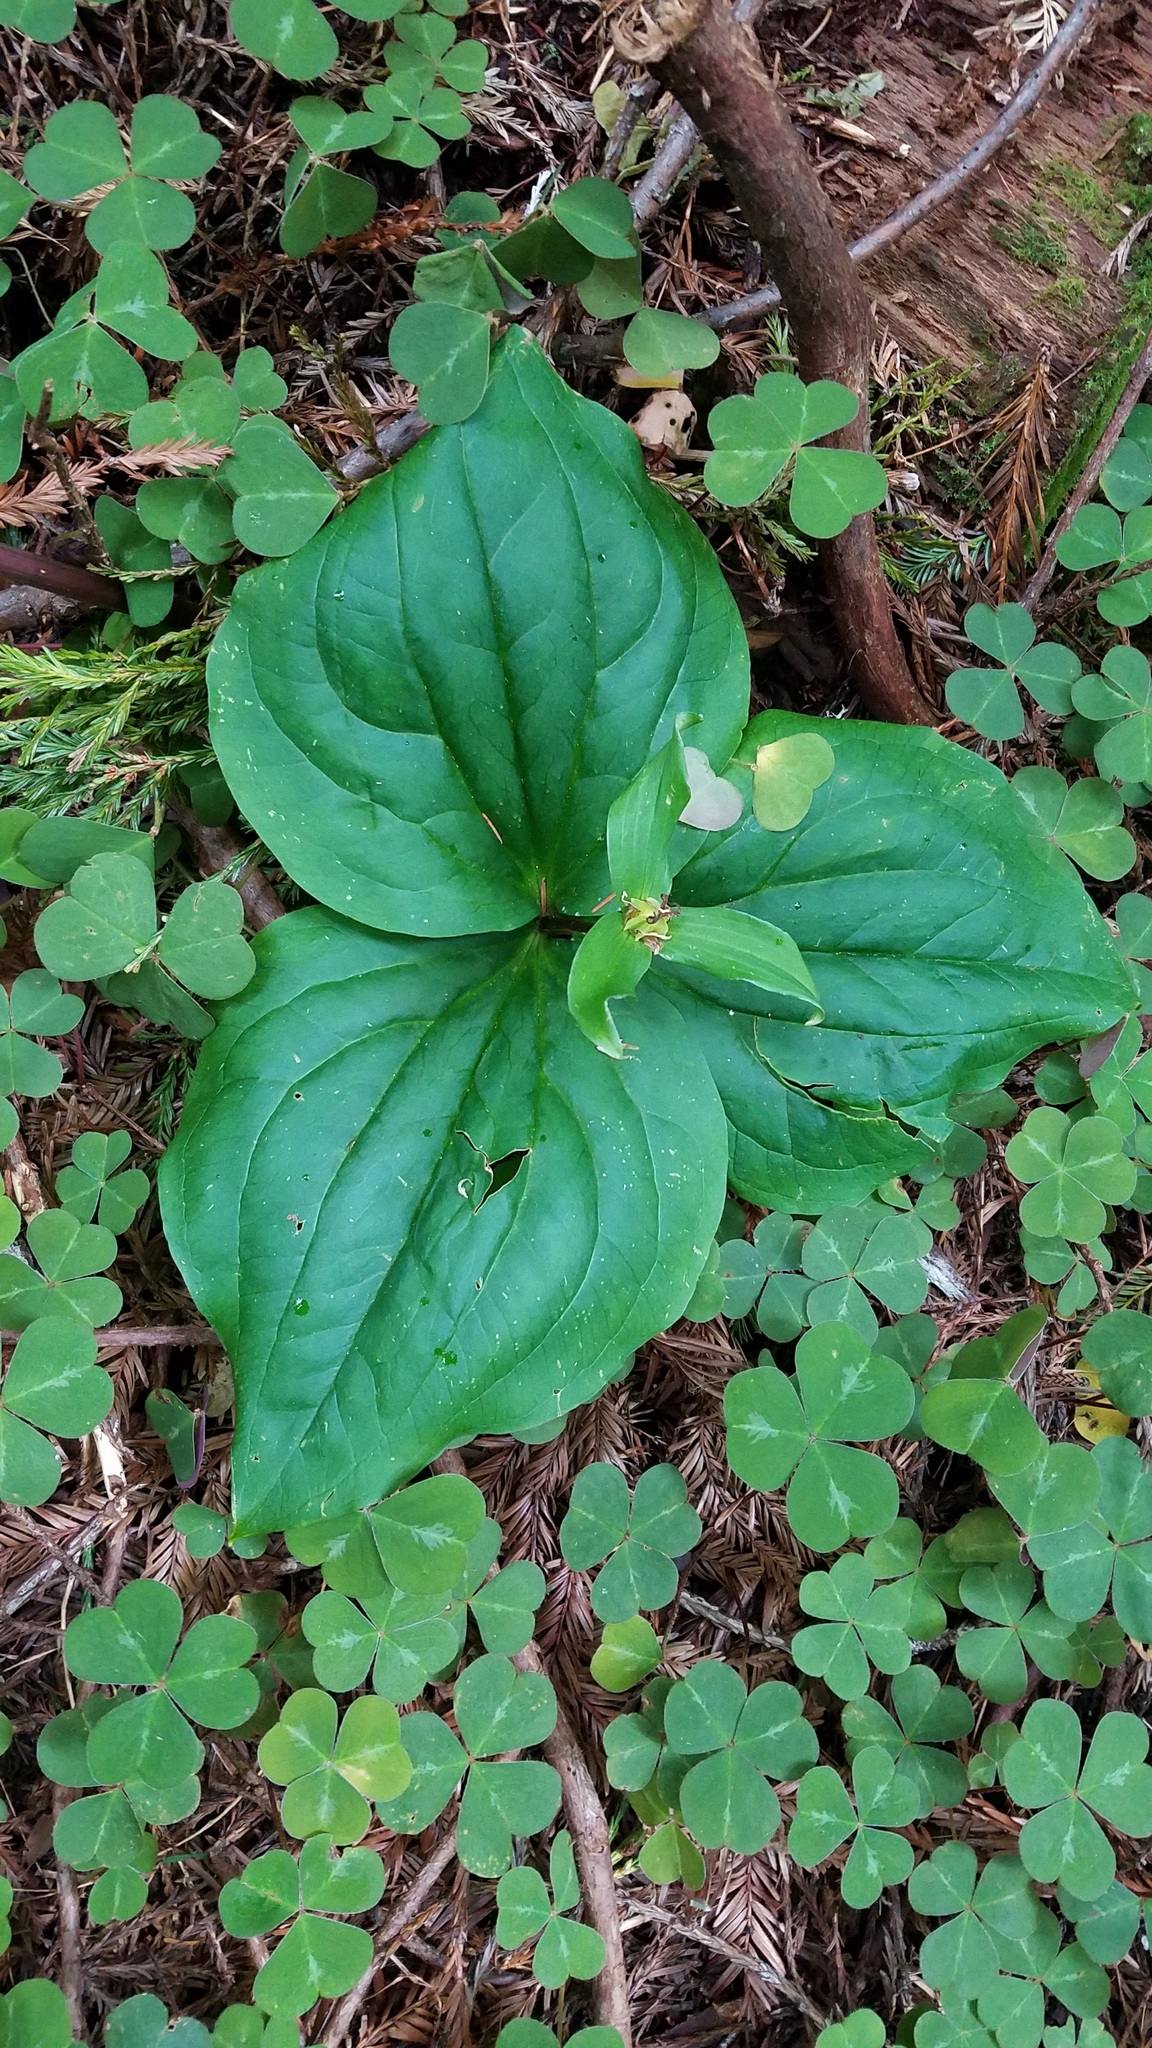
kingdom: Plantae
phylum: Tracheophyta
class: Liliopsida
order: Liliales
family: Melanthiaceae
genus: Trillium
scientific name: Trillium ovatum
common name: Pacific trillium
